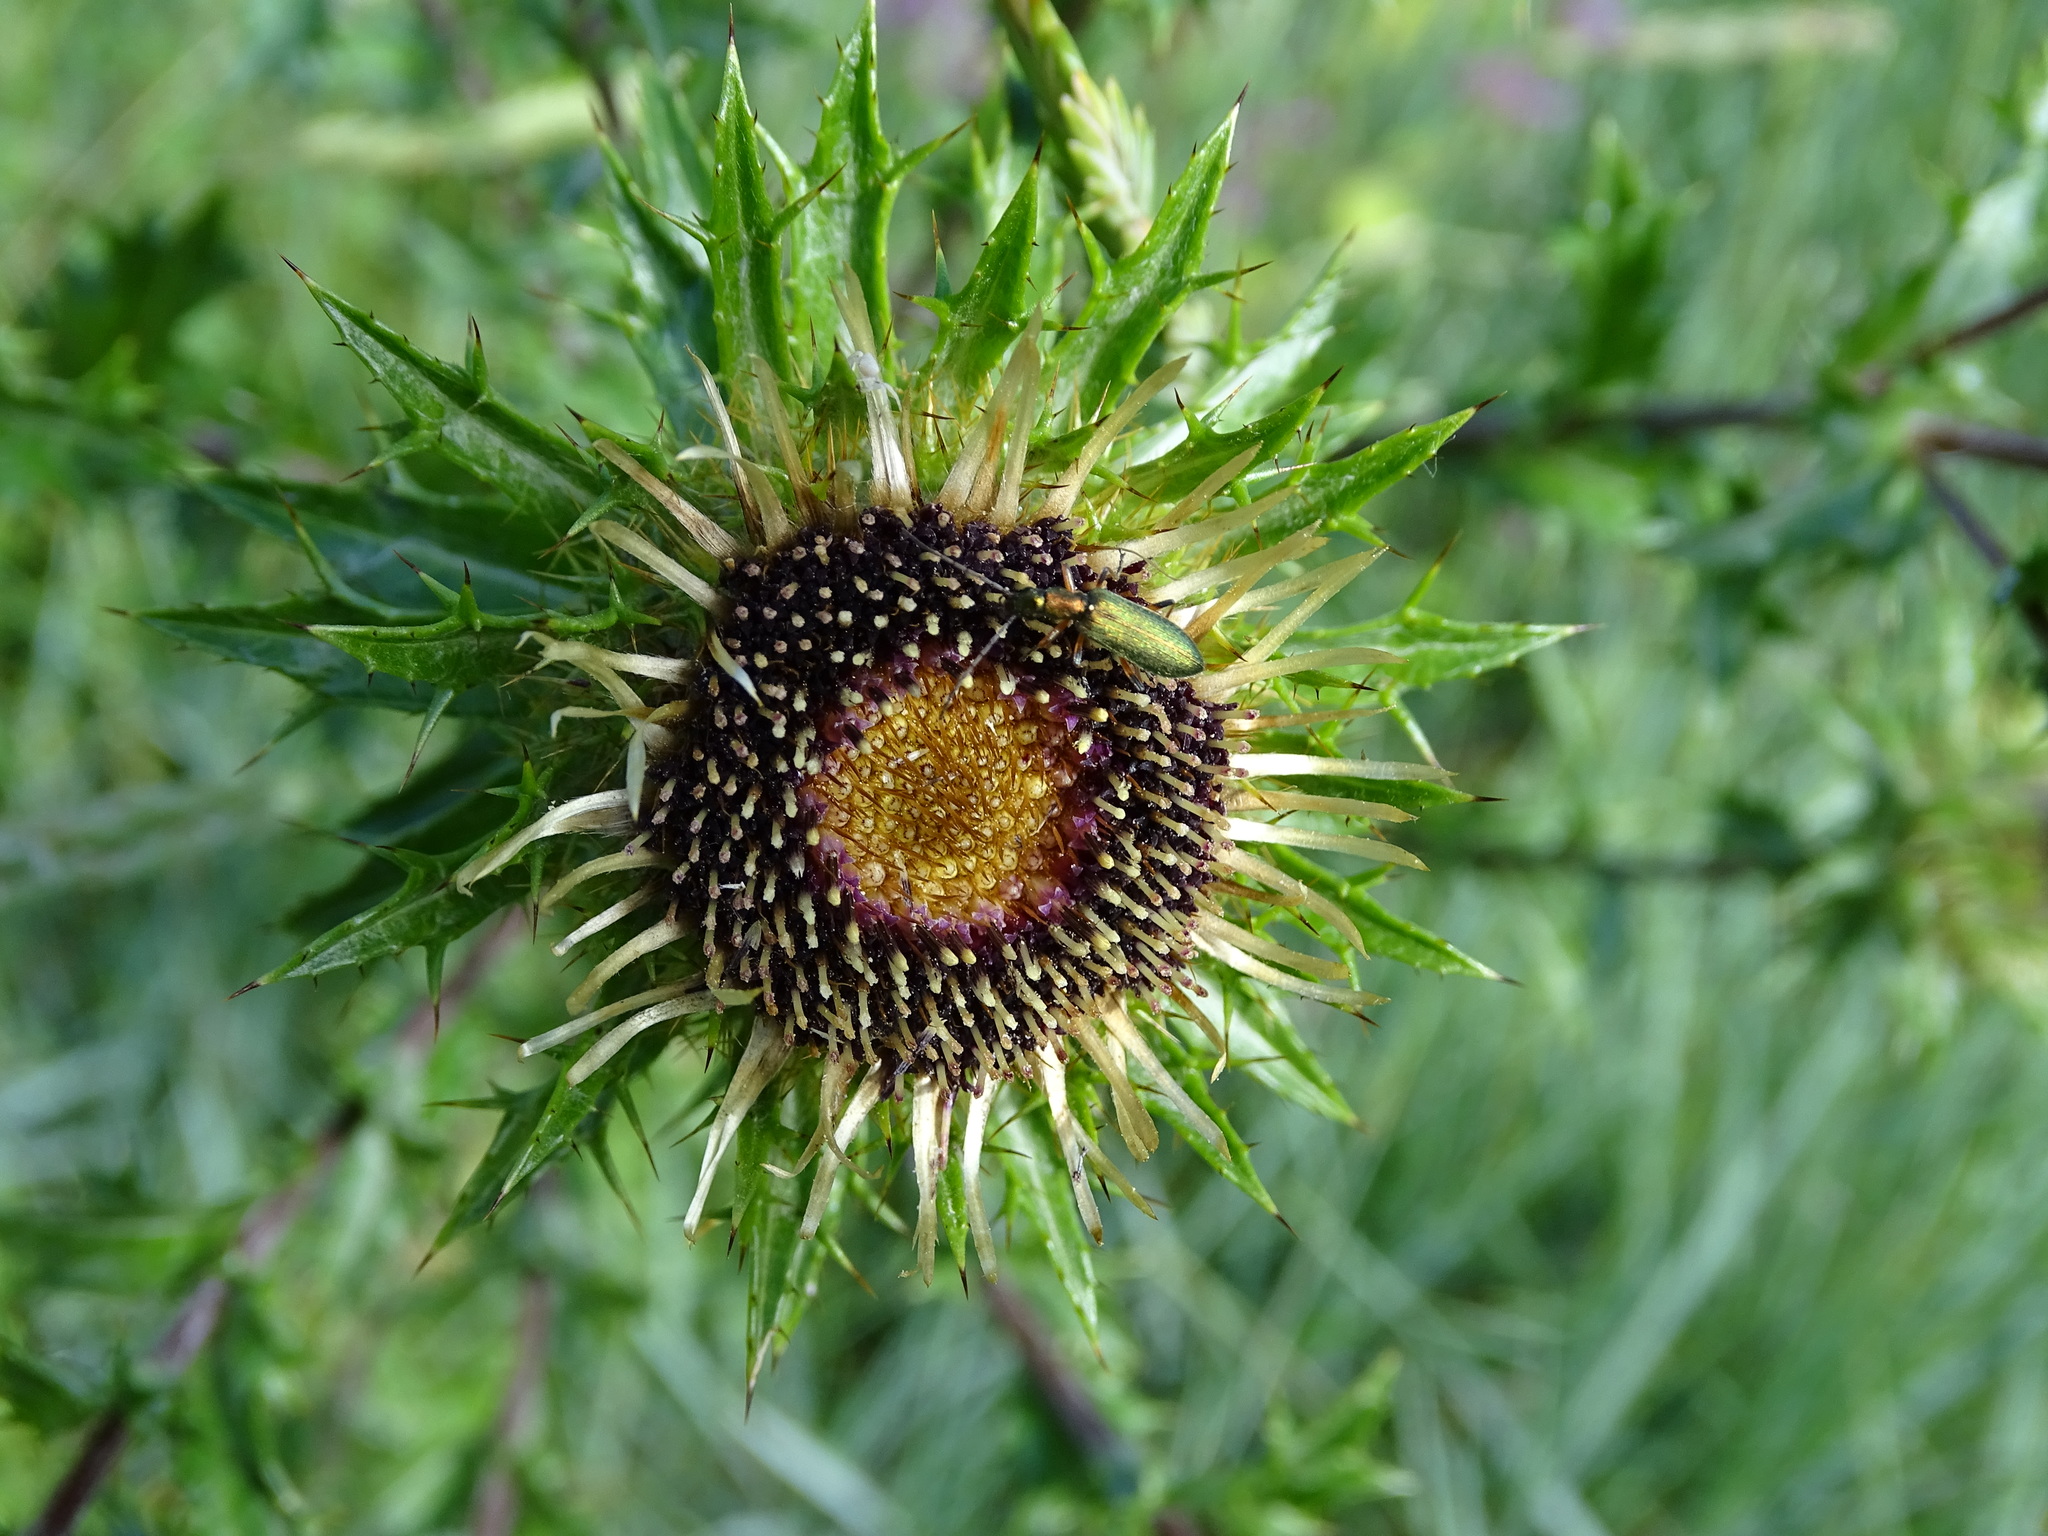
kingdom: Animalia
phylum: Arthropoda
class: Insecta
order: Coleoptera
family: Oedemeridae
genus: Chrysanthia
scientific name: Chrysanthia geniculata
